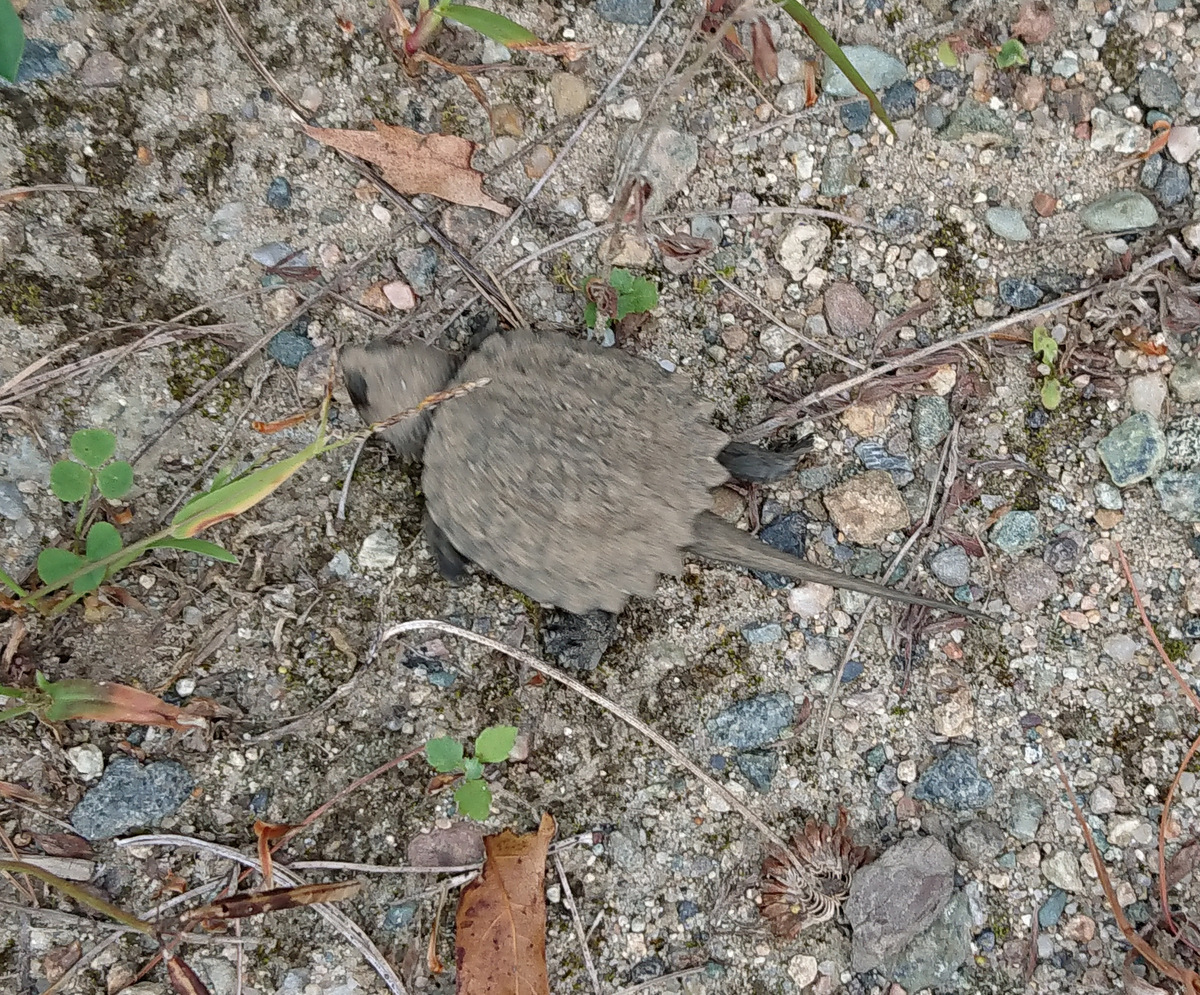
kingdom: Animalia
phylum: Chordata
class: Testudines
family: Chelydridae
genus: Chelydra
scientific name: Chelydra serpentina
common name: Common snapping turtle
